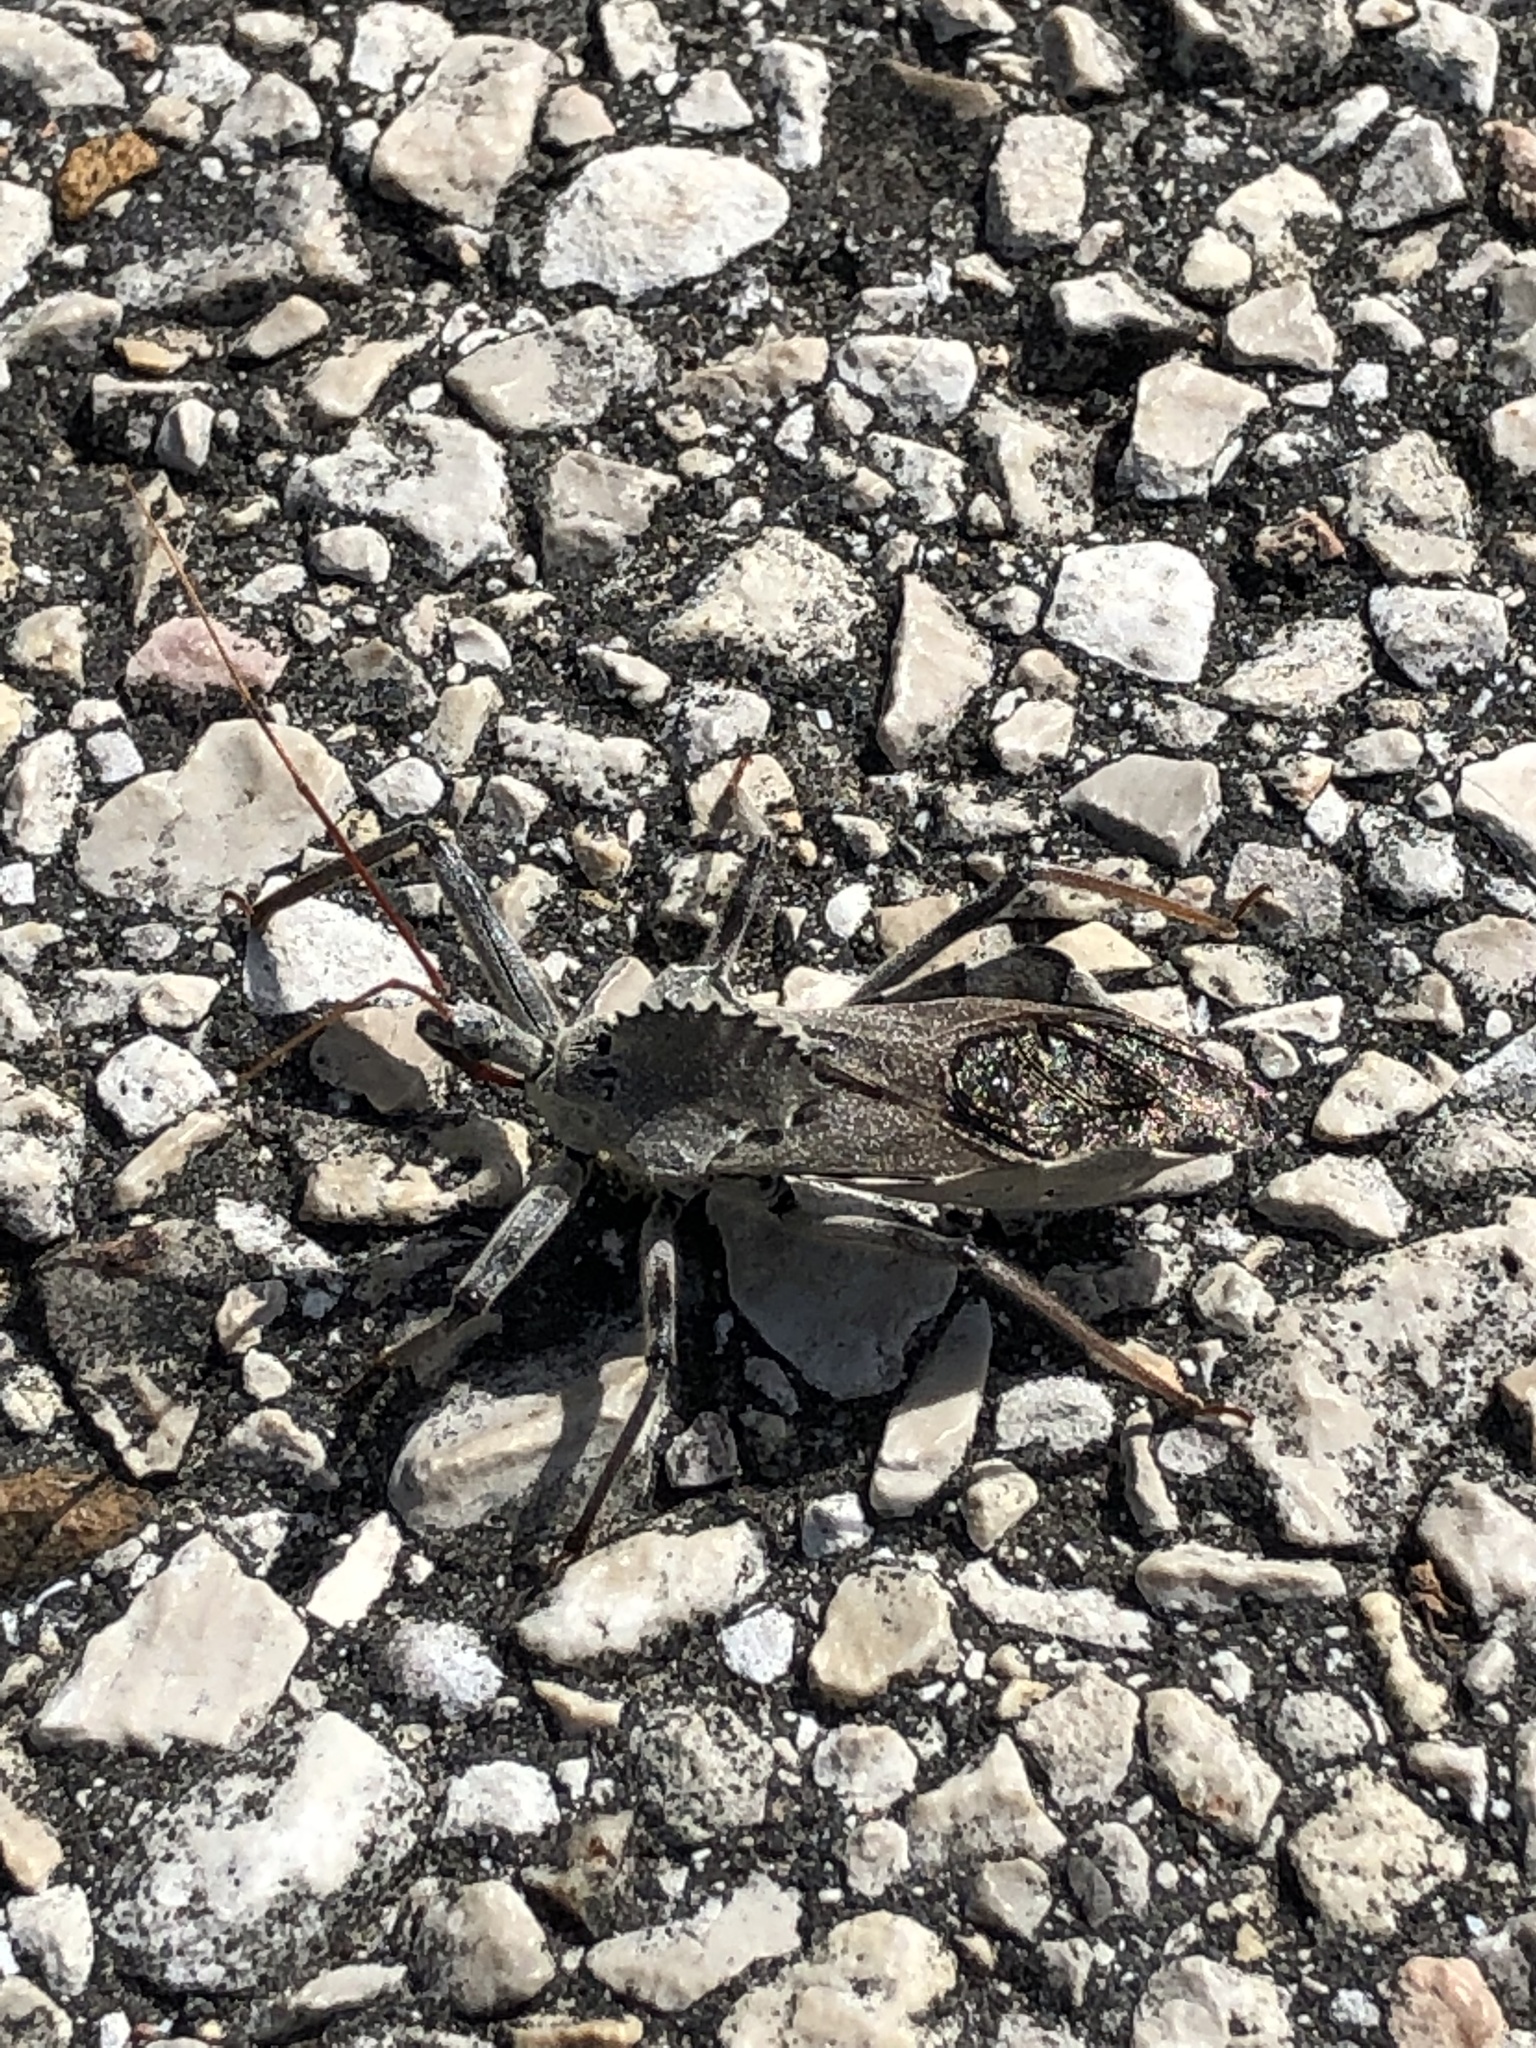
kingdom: Animalia
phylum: Arthropoda
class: Insecta
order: Hemiptera
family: Reduviidae
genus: Arilus
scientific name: Arilus cristatus
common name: North american wheel bug
